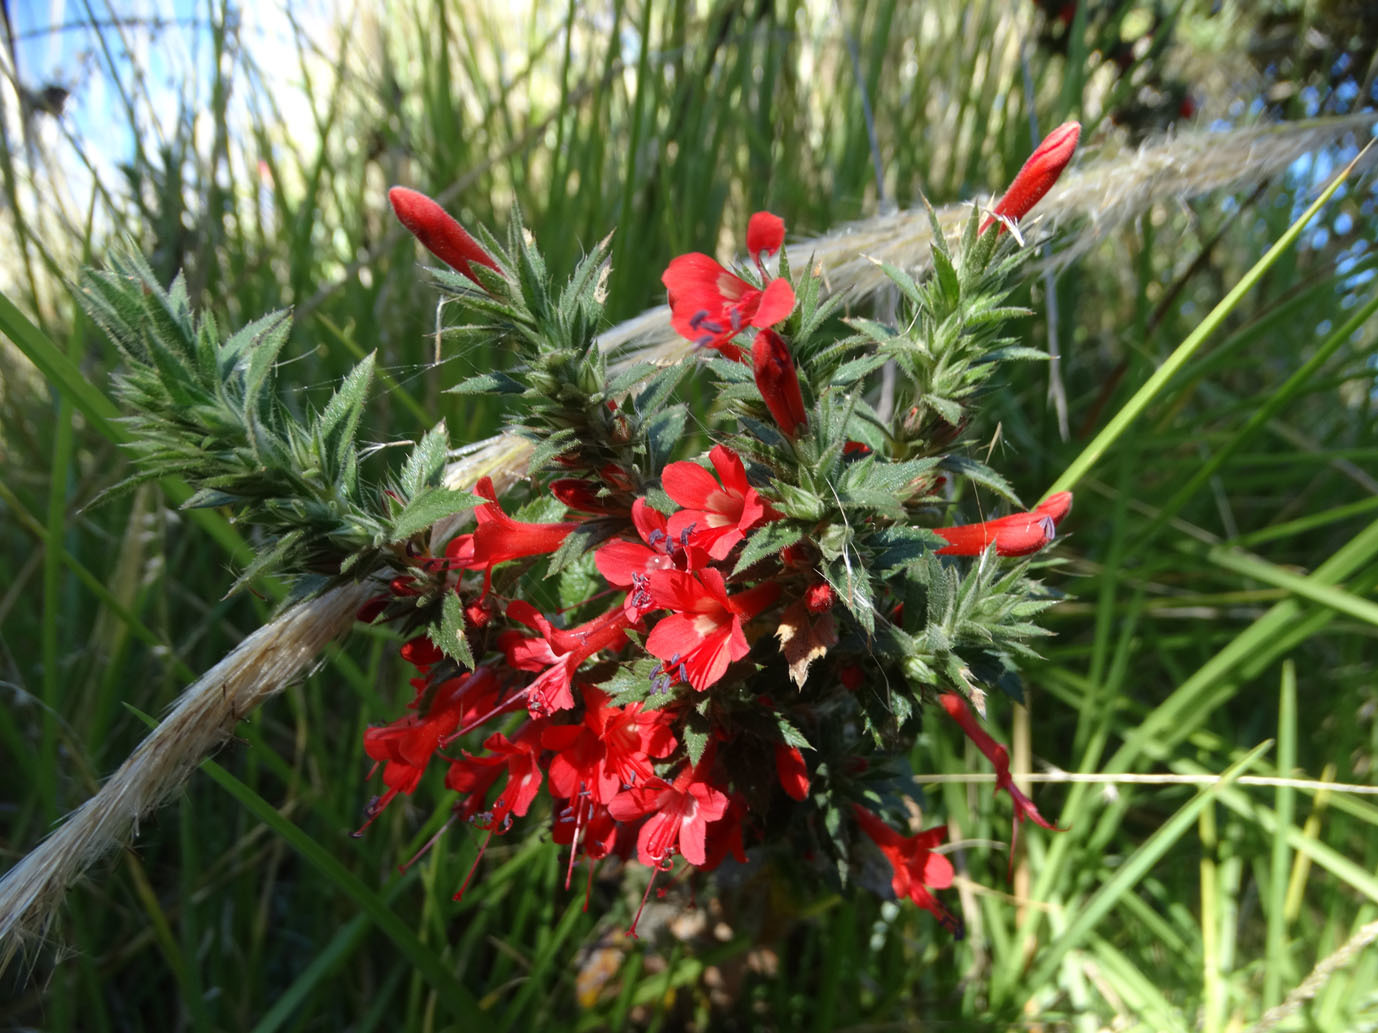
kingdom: Plantae
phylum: Tracheophyta
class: Magnoliopsida
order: Ericales
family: Polemoniaceae
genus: Loeselia
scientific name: Loeselia mexicana
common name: Mexican false calico
